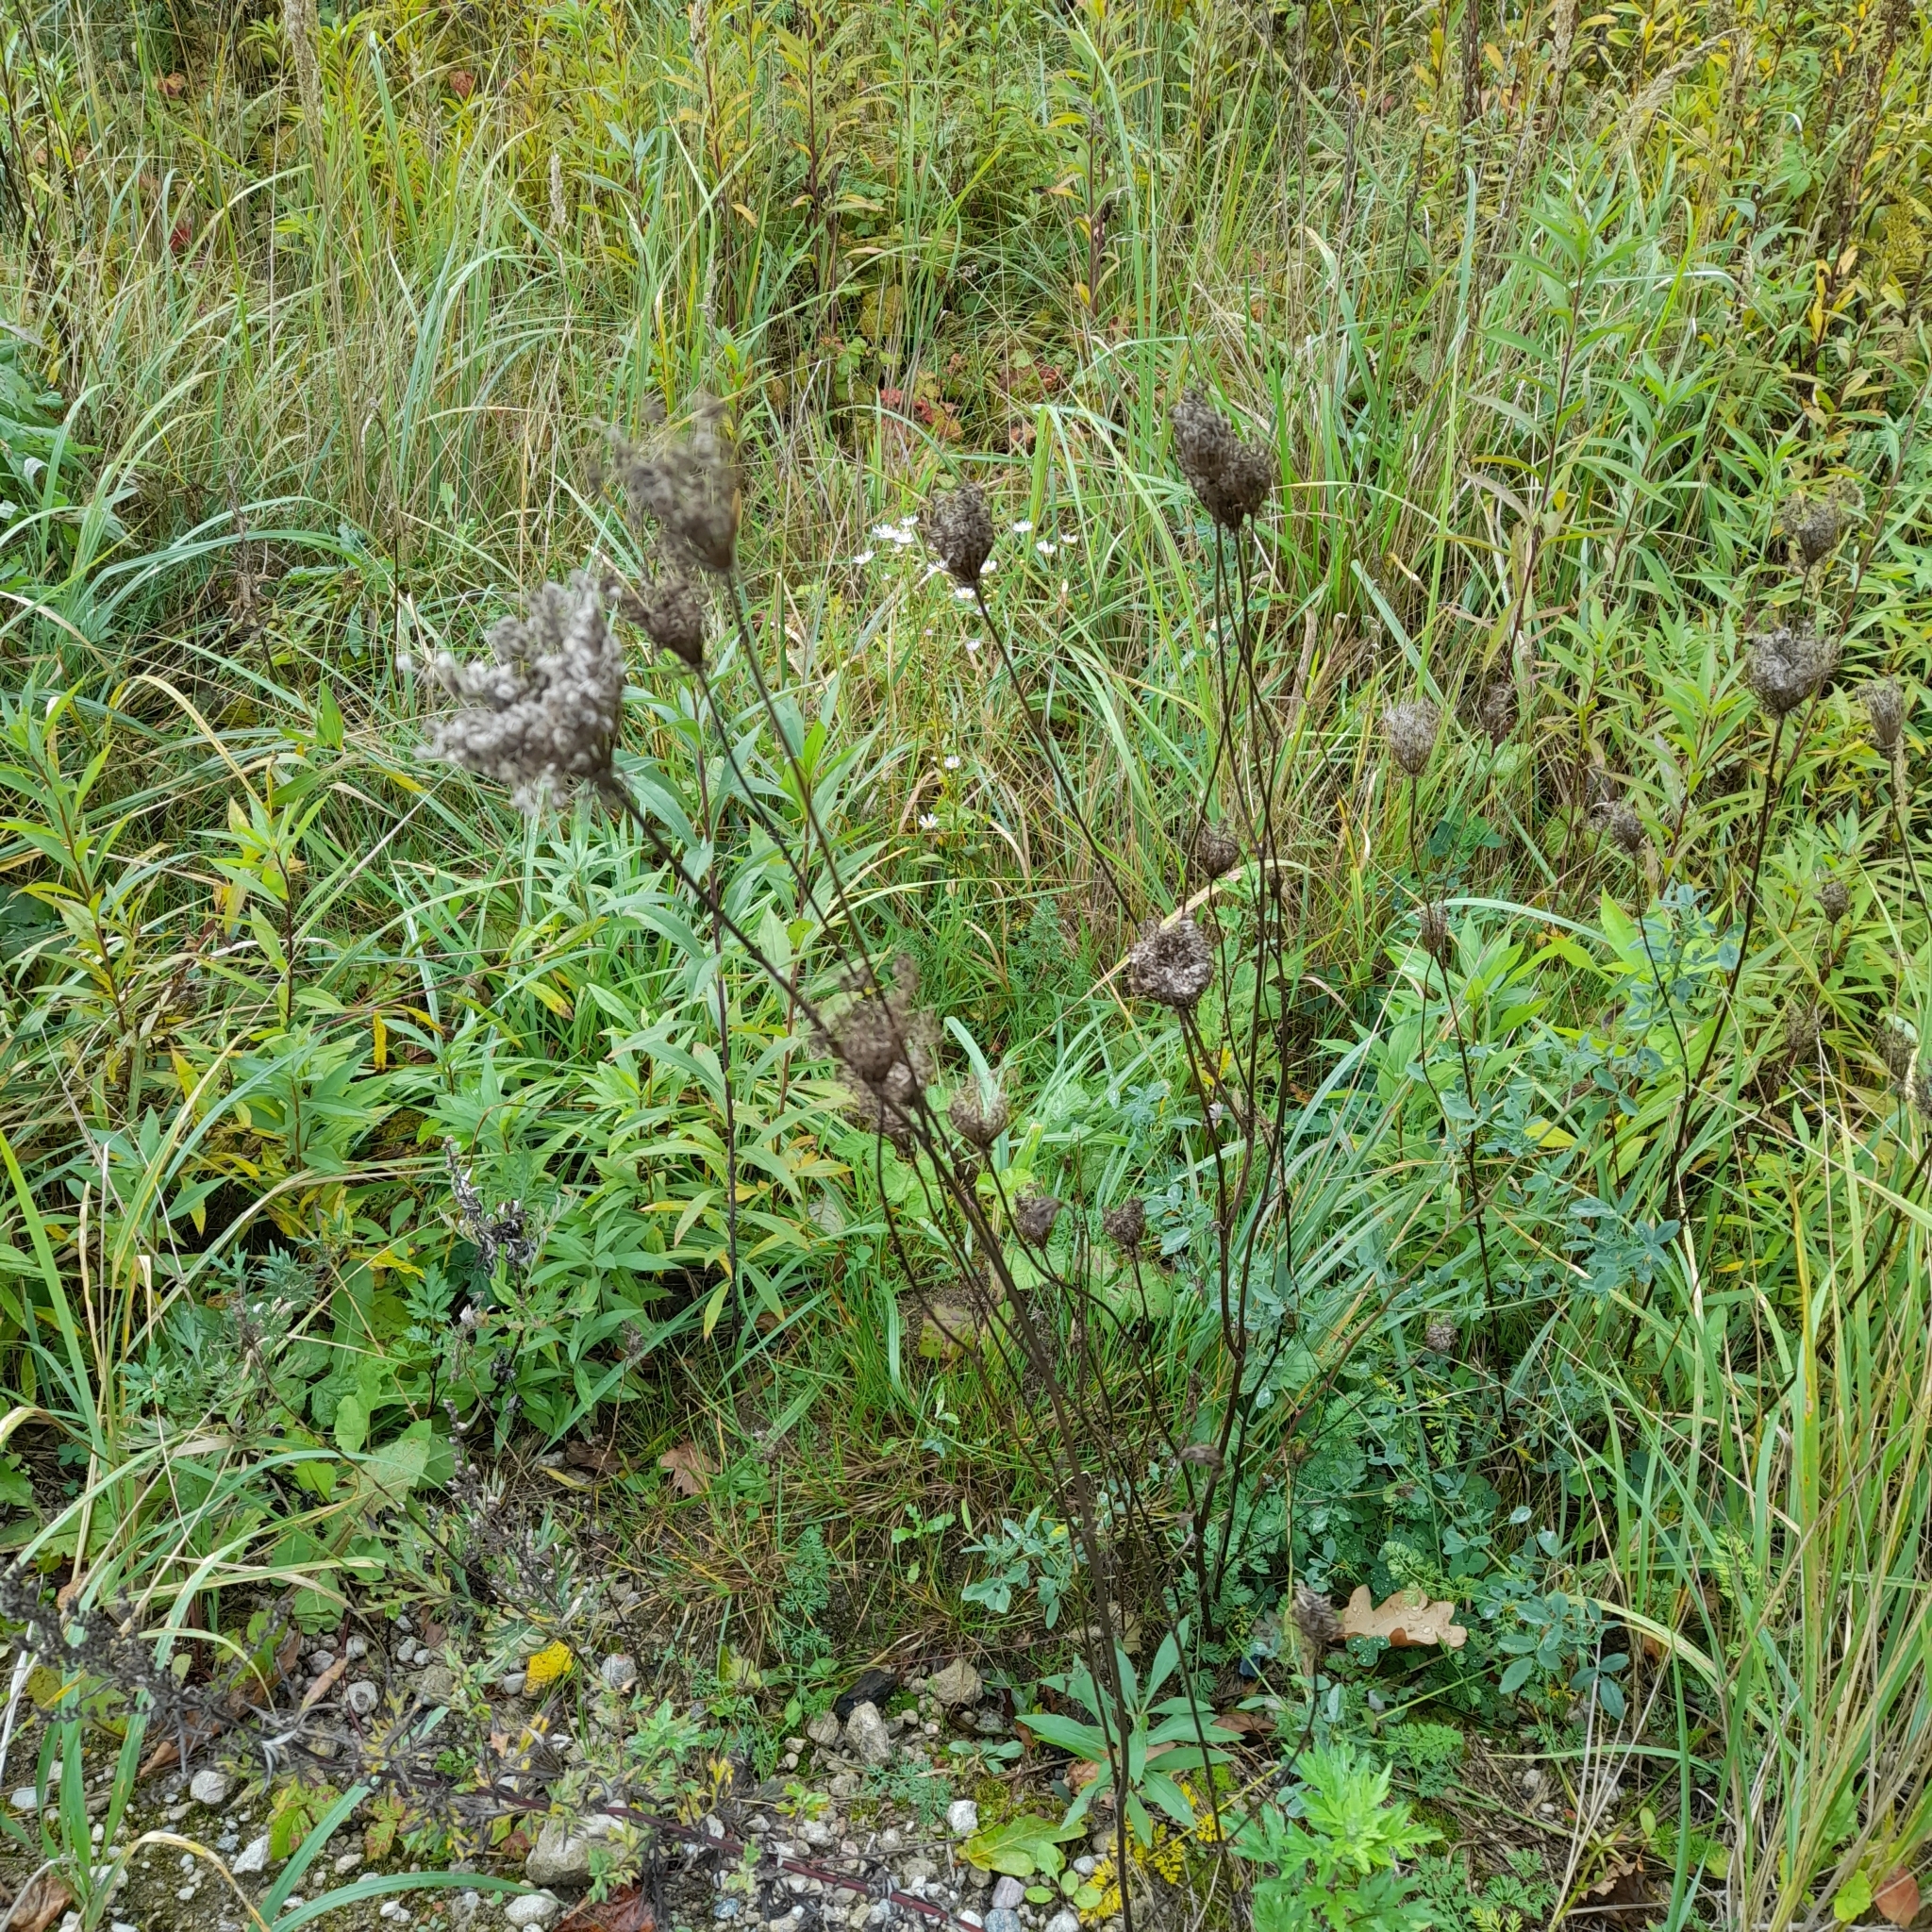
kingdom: Plantae
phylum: Tracheophyta
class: Magnoliopsida
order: Apiales
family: Apiaceae
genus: Daucus
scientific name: Daucus carota
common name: Wild carrot
